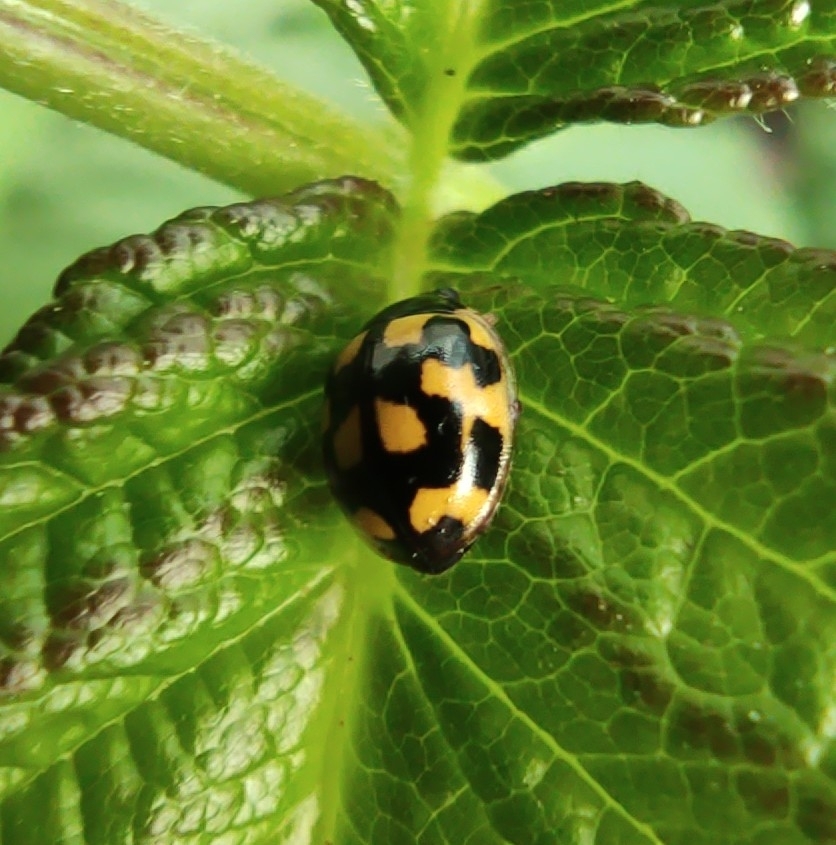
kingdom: Animalia
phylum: Arthropoda
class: Insecta
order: Coleoptera
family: Coccinellidae
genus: Propylaea
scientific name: Propylaea quatuordecimpunctata
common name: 14-spotted ladybird beetle
